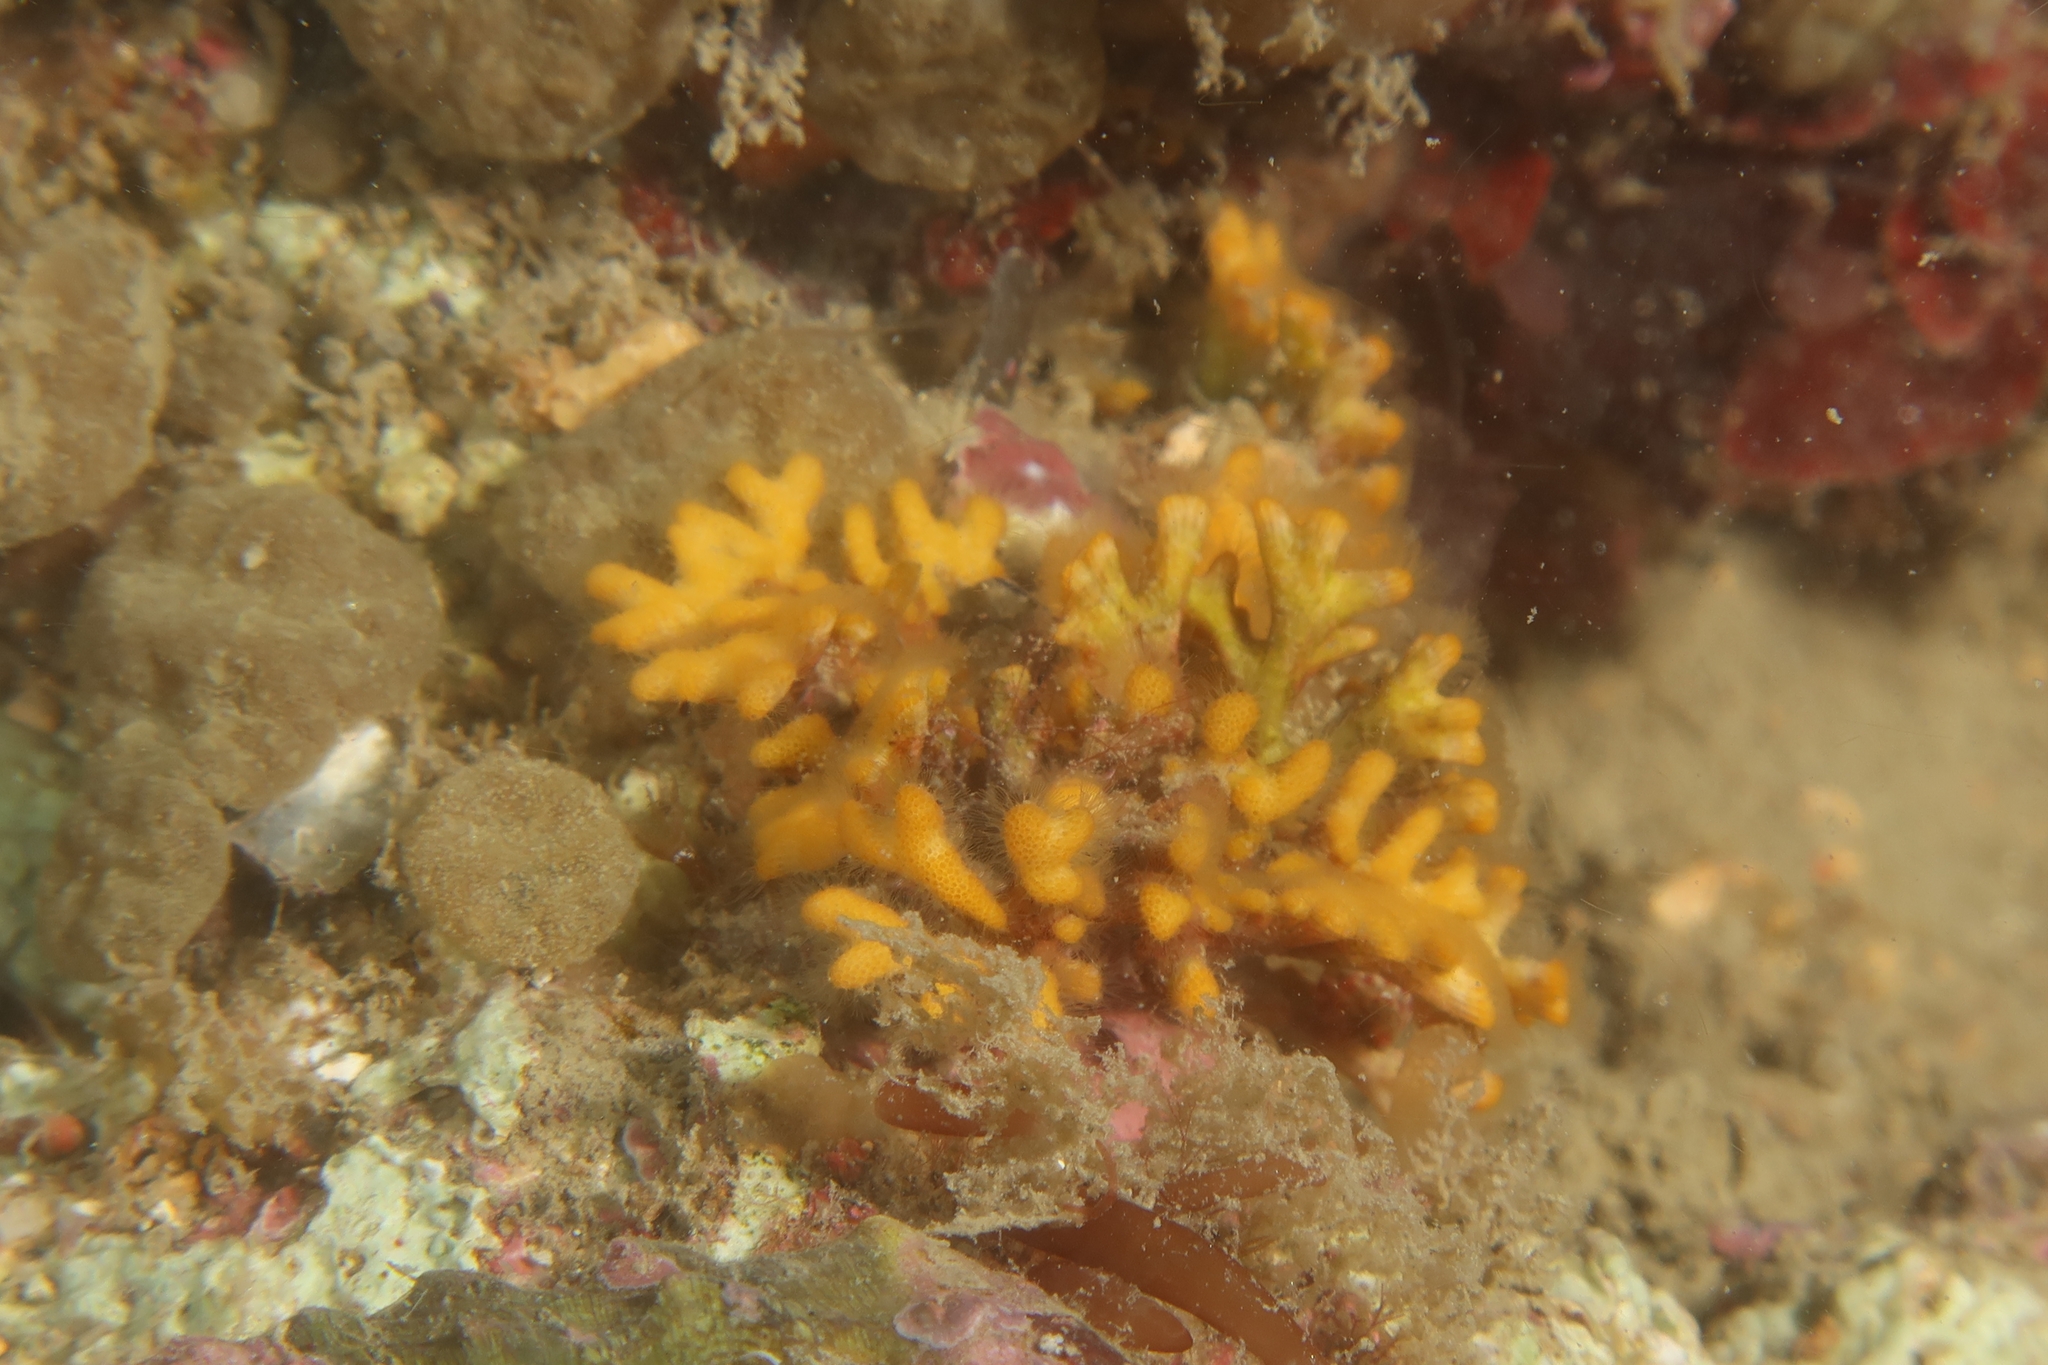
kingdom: Animalia
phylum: Bryozoa
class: Stenolaemata
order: Cyclostomatida
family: Frondiporidae
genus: Frondipora
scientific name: Frondipora verrucosa
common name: Warty leaf-bryozoan
